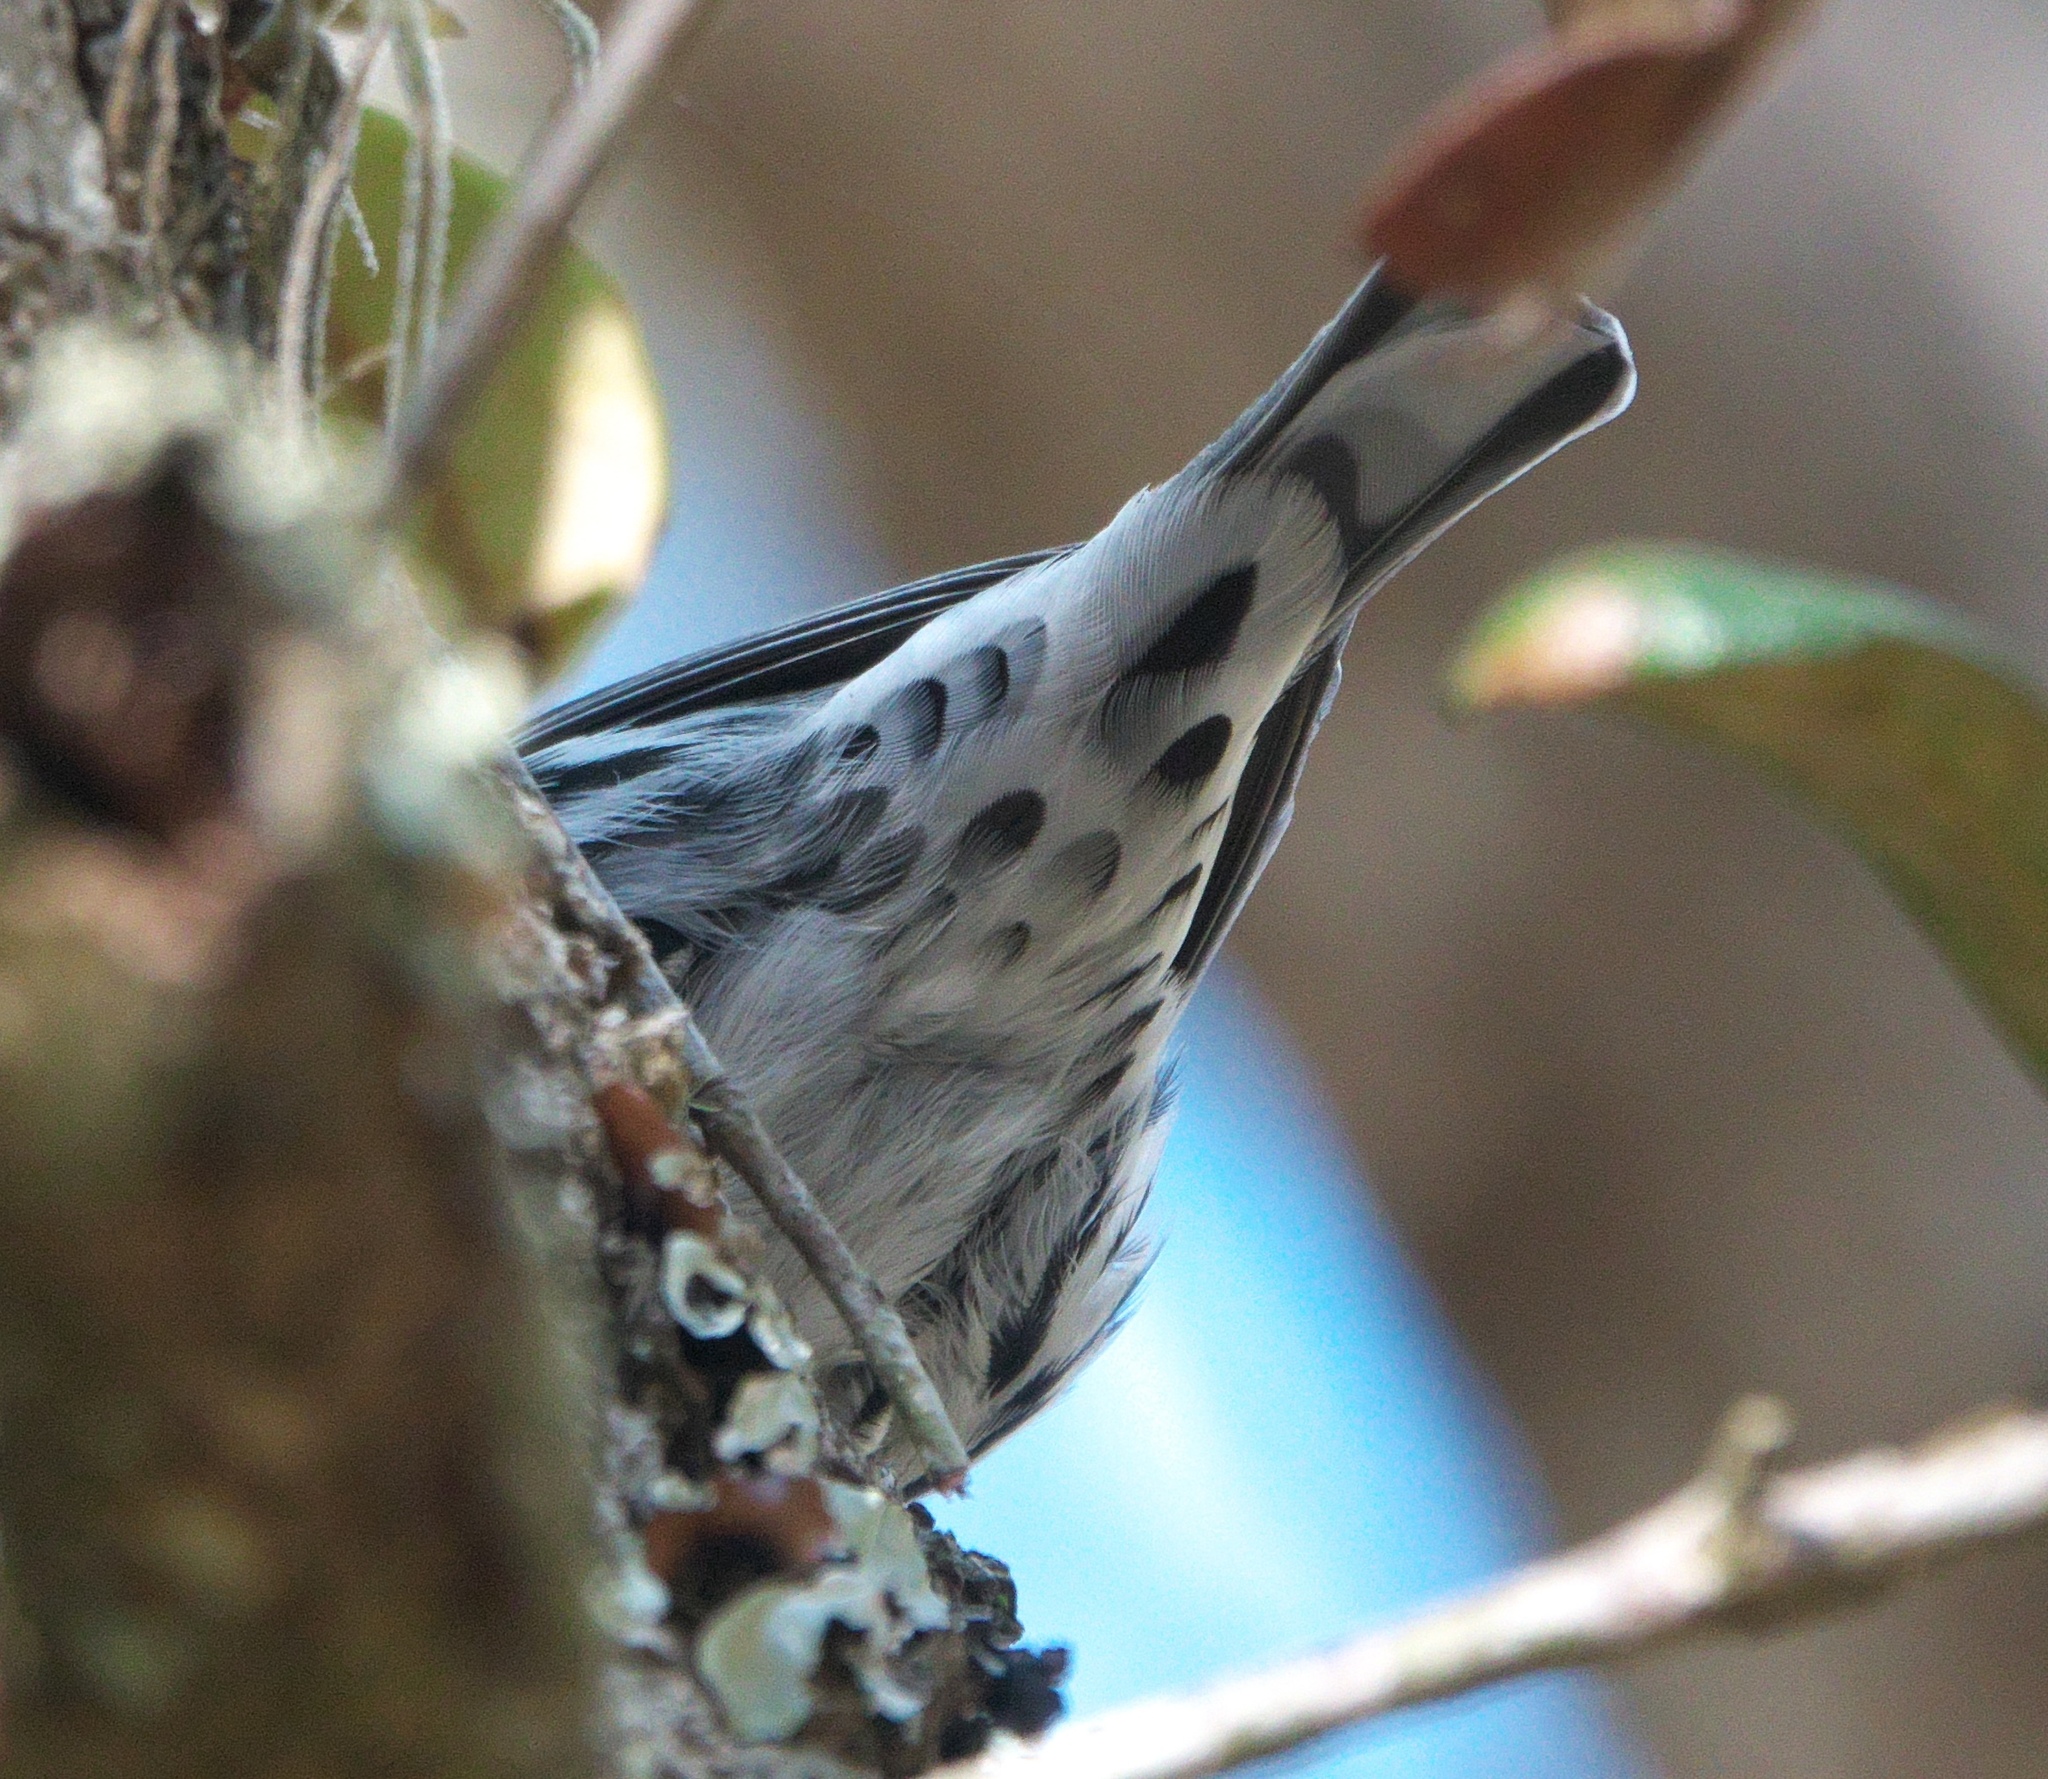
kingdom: Animalia
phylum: Chordata
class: Aves
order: Passeriformes
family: Parulidae
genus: Mniotilta
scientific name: Mniotilta varia
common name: Black-and-white warbler
